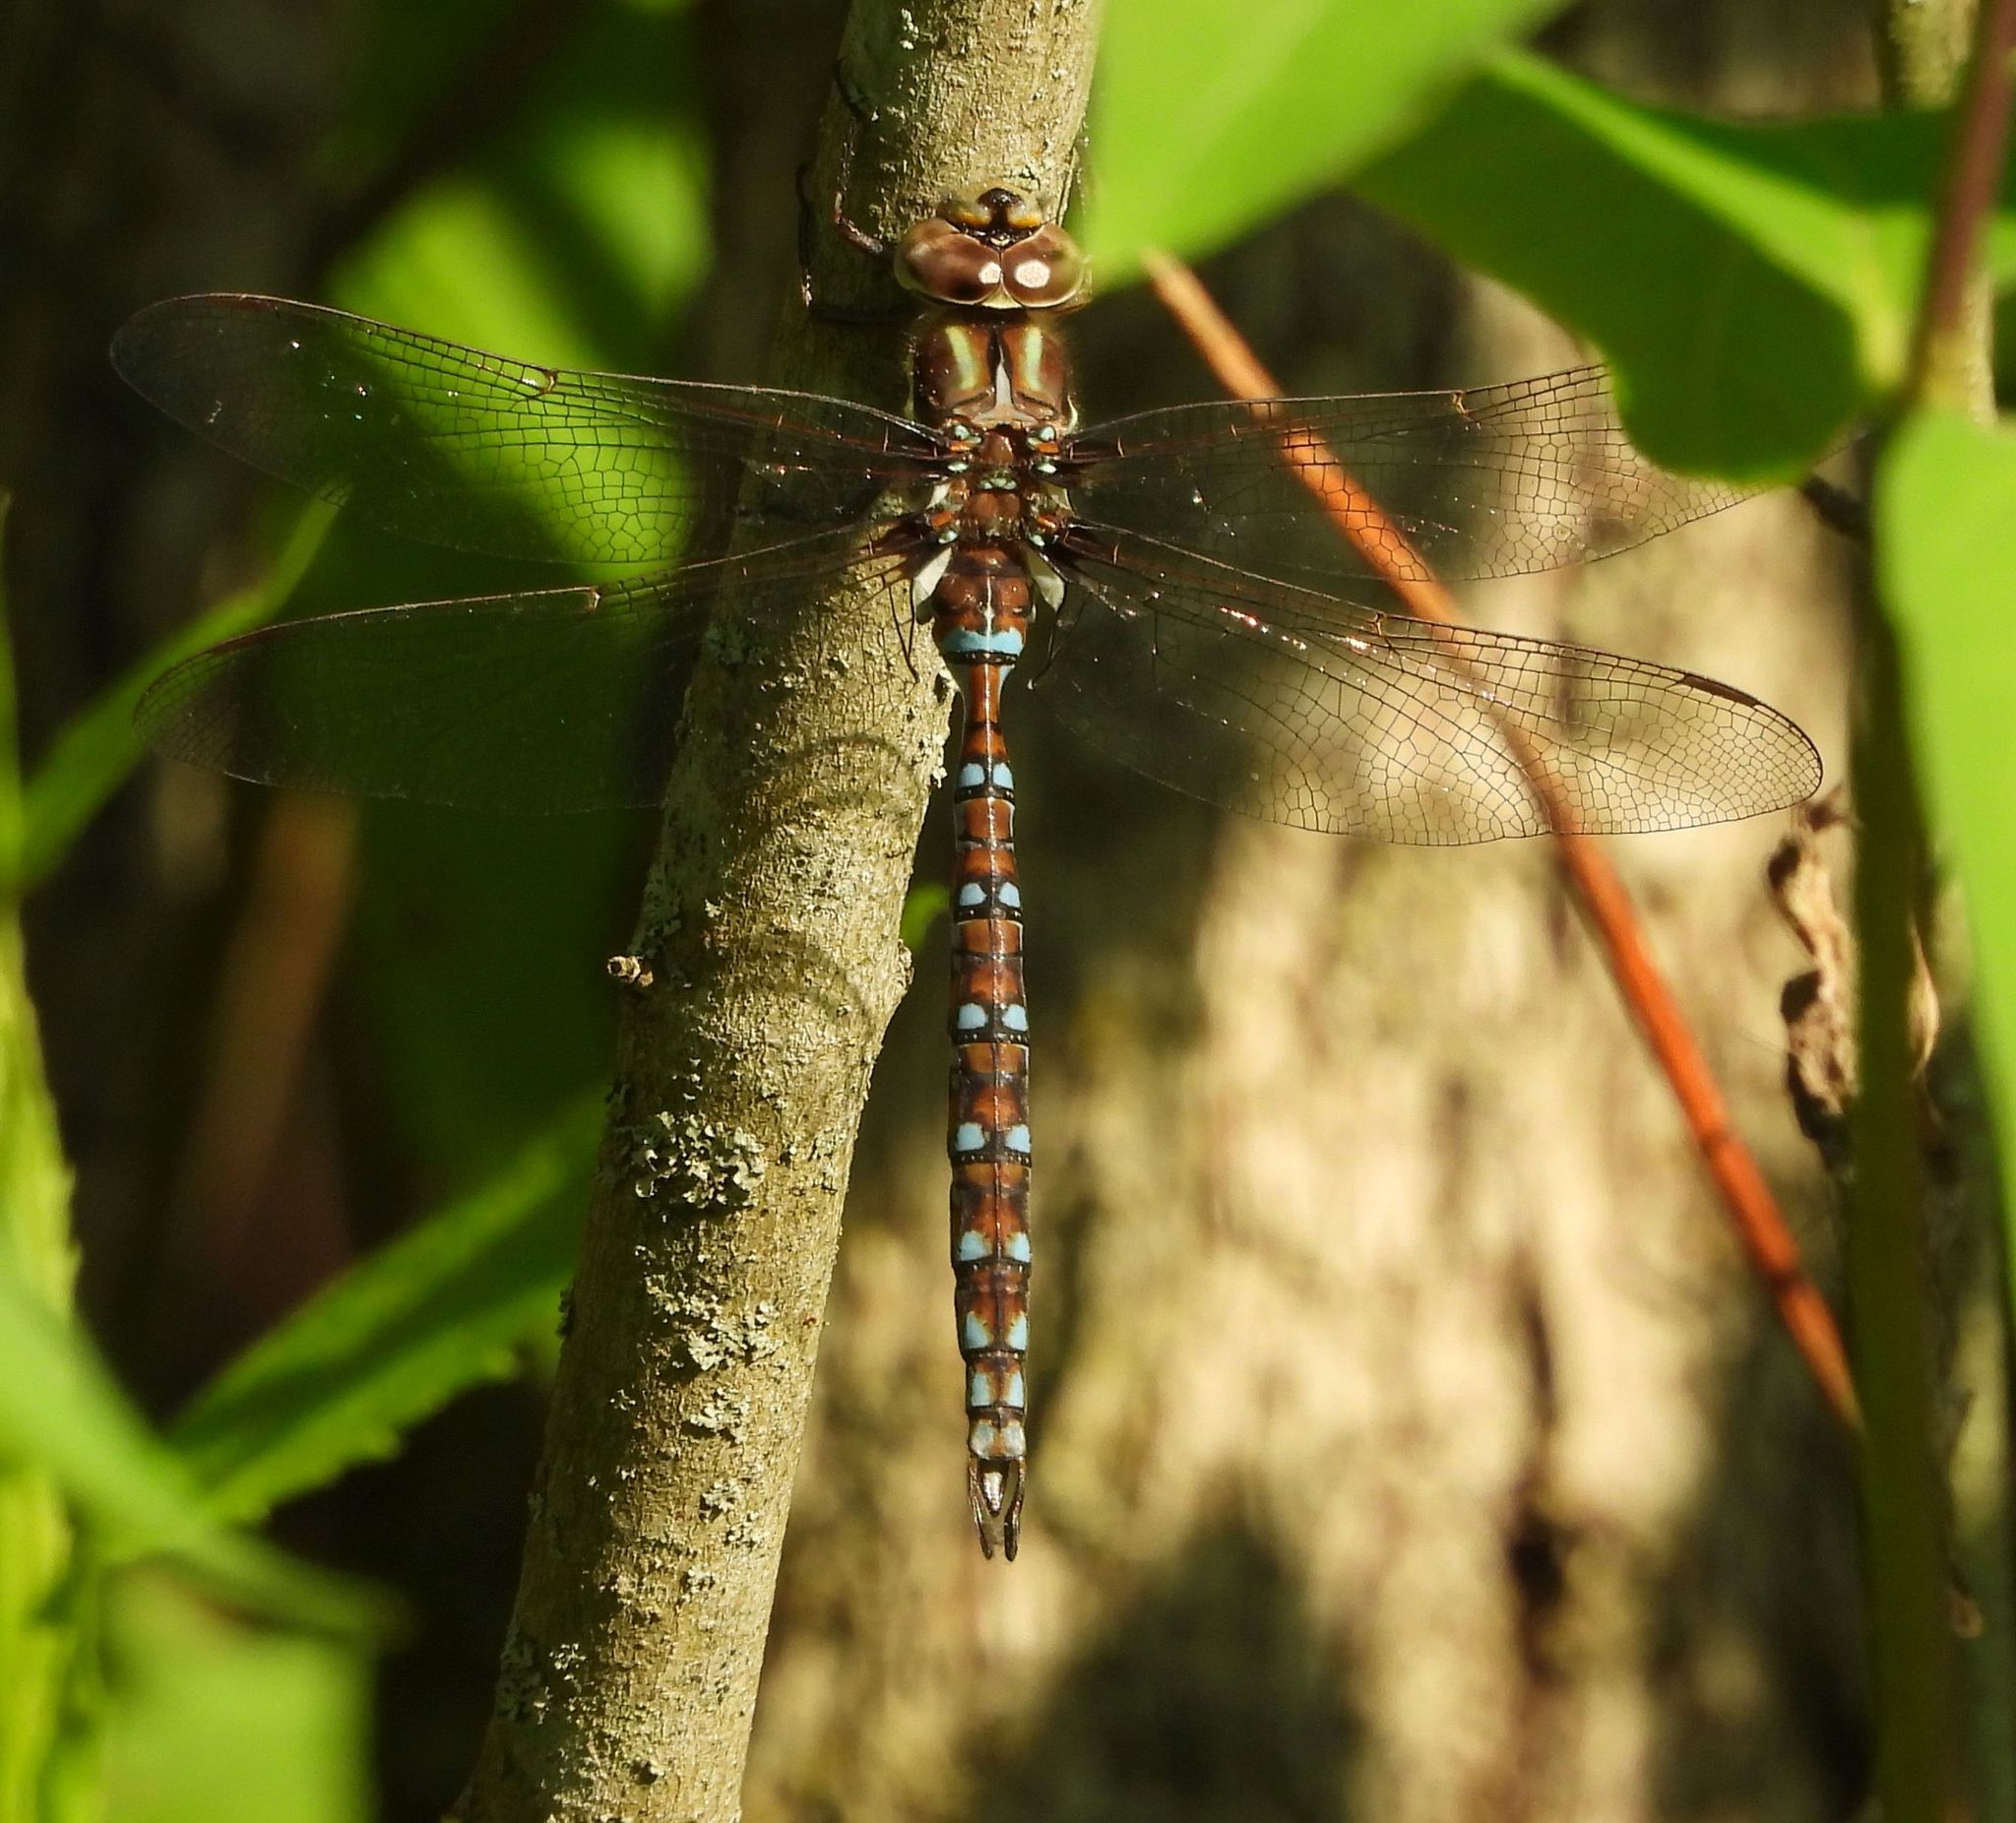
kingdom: Animalia
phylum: Arthropoda
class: Insecta
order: Odonata
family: Aeshnidae
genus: Basiaeschna
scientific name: Basiaeschna janata
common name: Springtime darner
